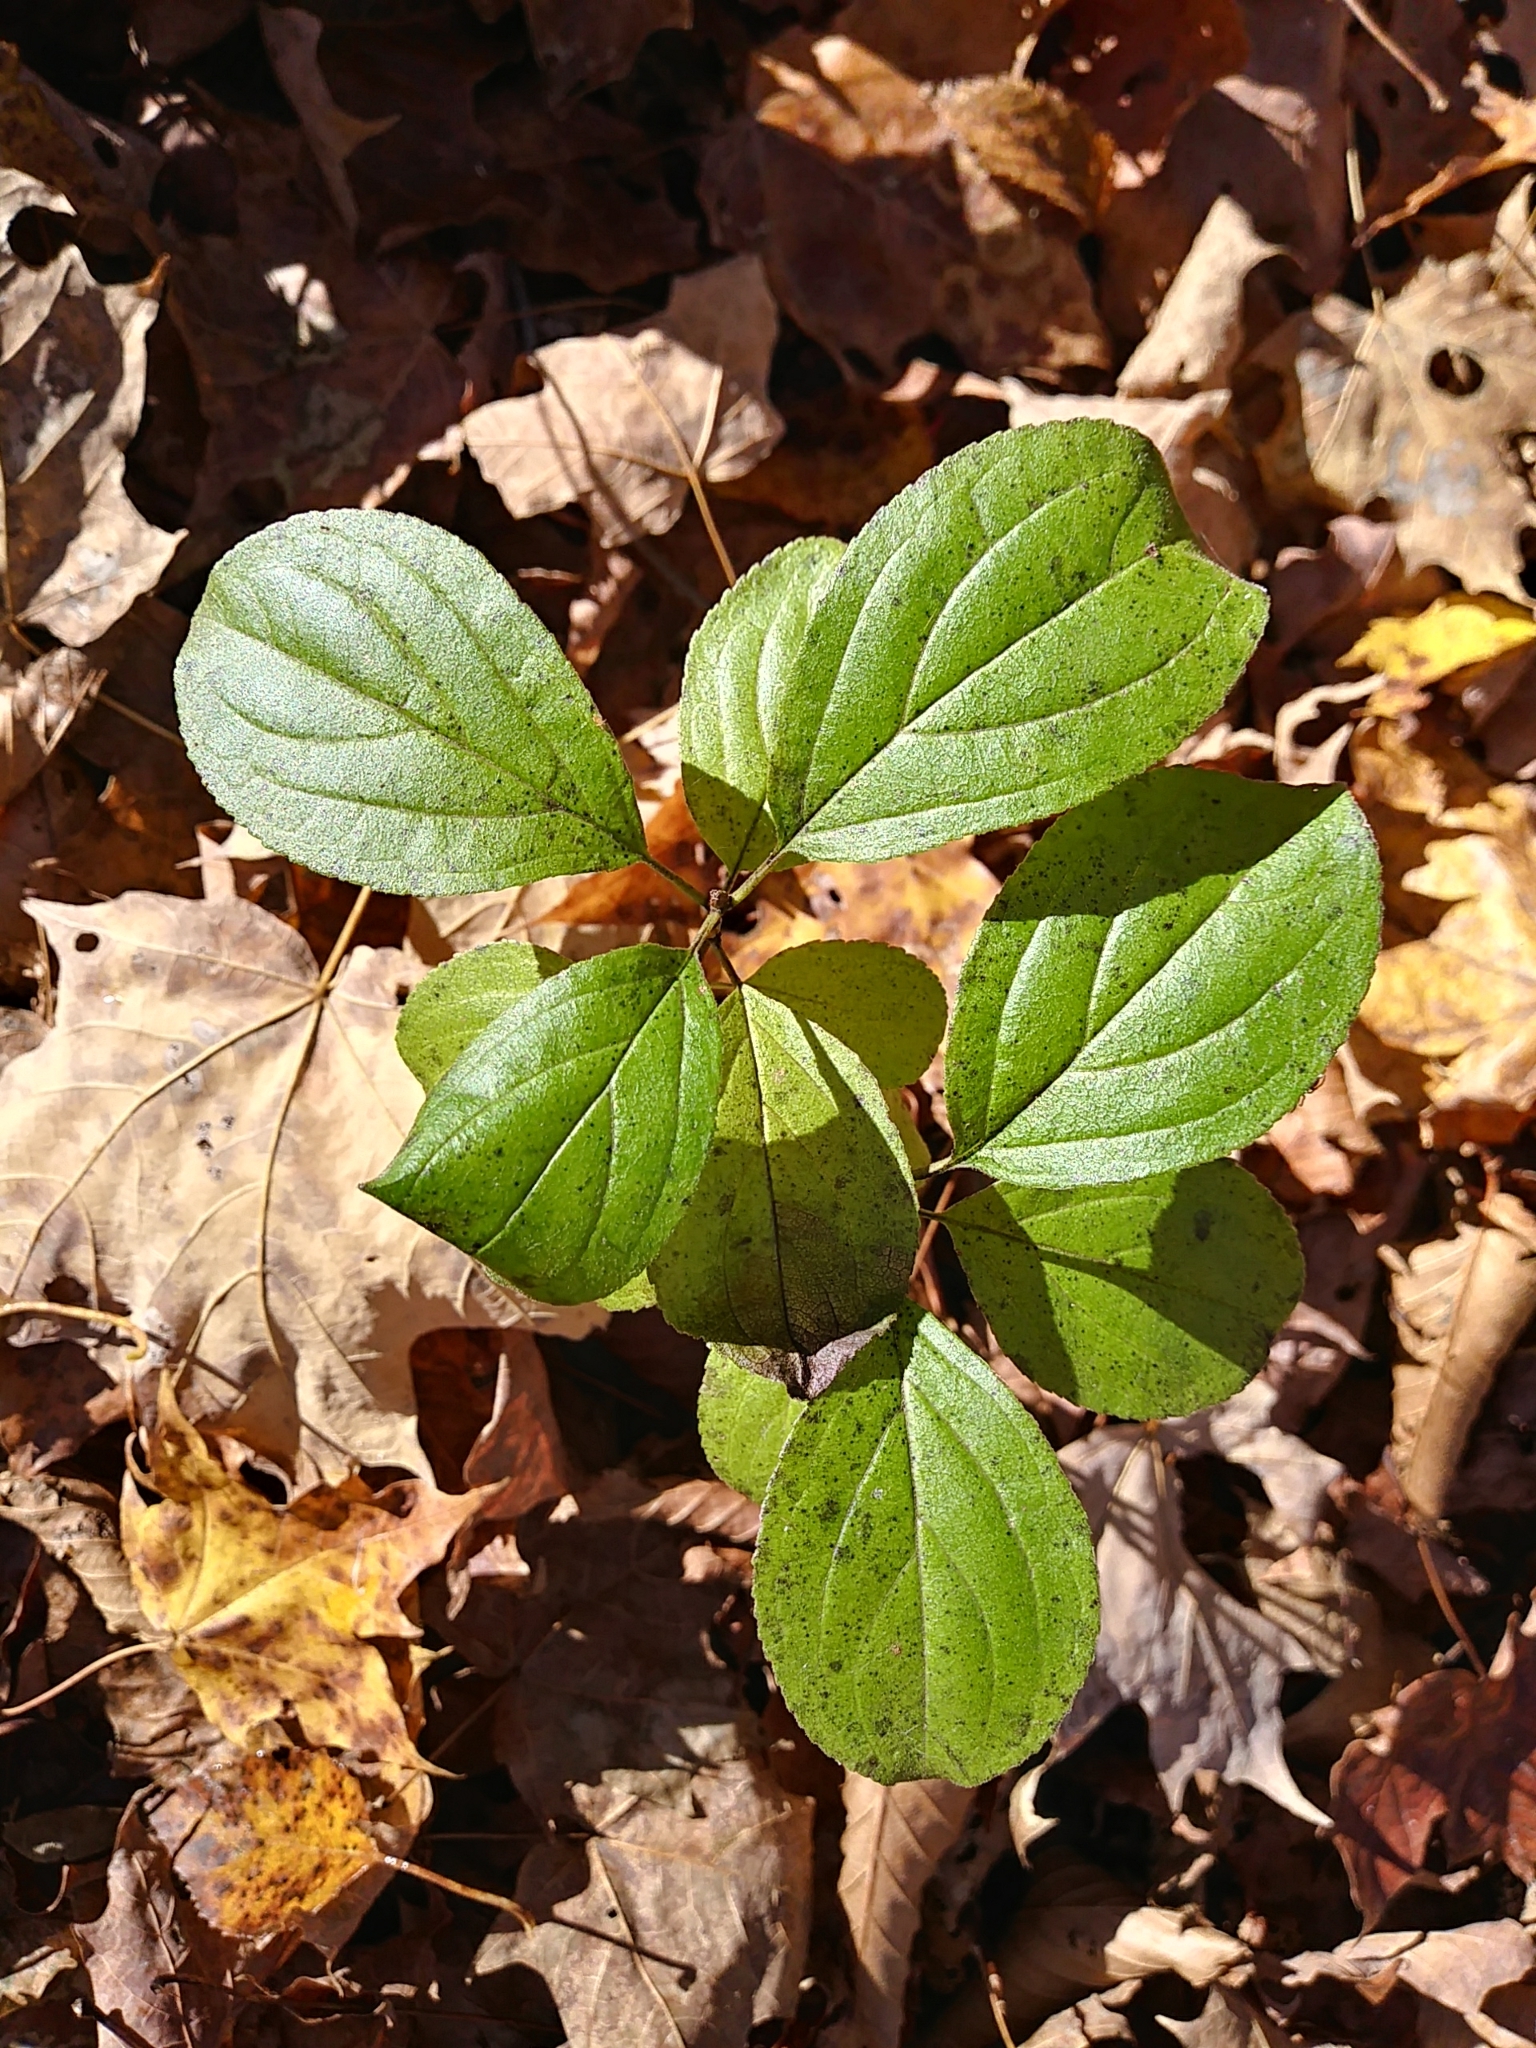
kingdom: Plantae
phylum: Tracheophyta
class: Magnoliopsida
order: Rosales
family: Rhamnaceae
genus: Rhamnus
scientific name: Rhamnus cathartica
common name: Common buckthorn
